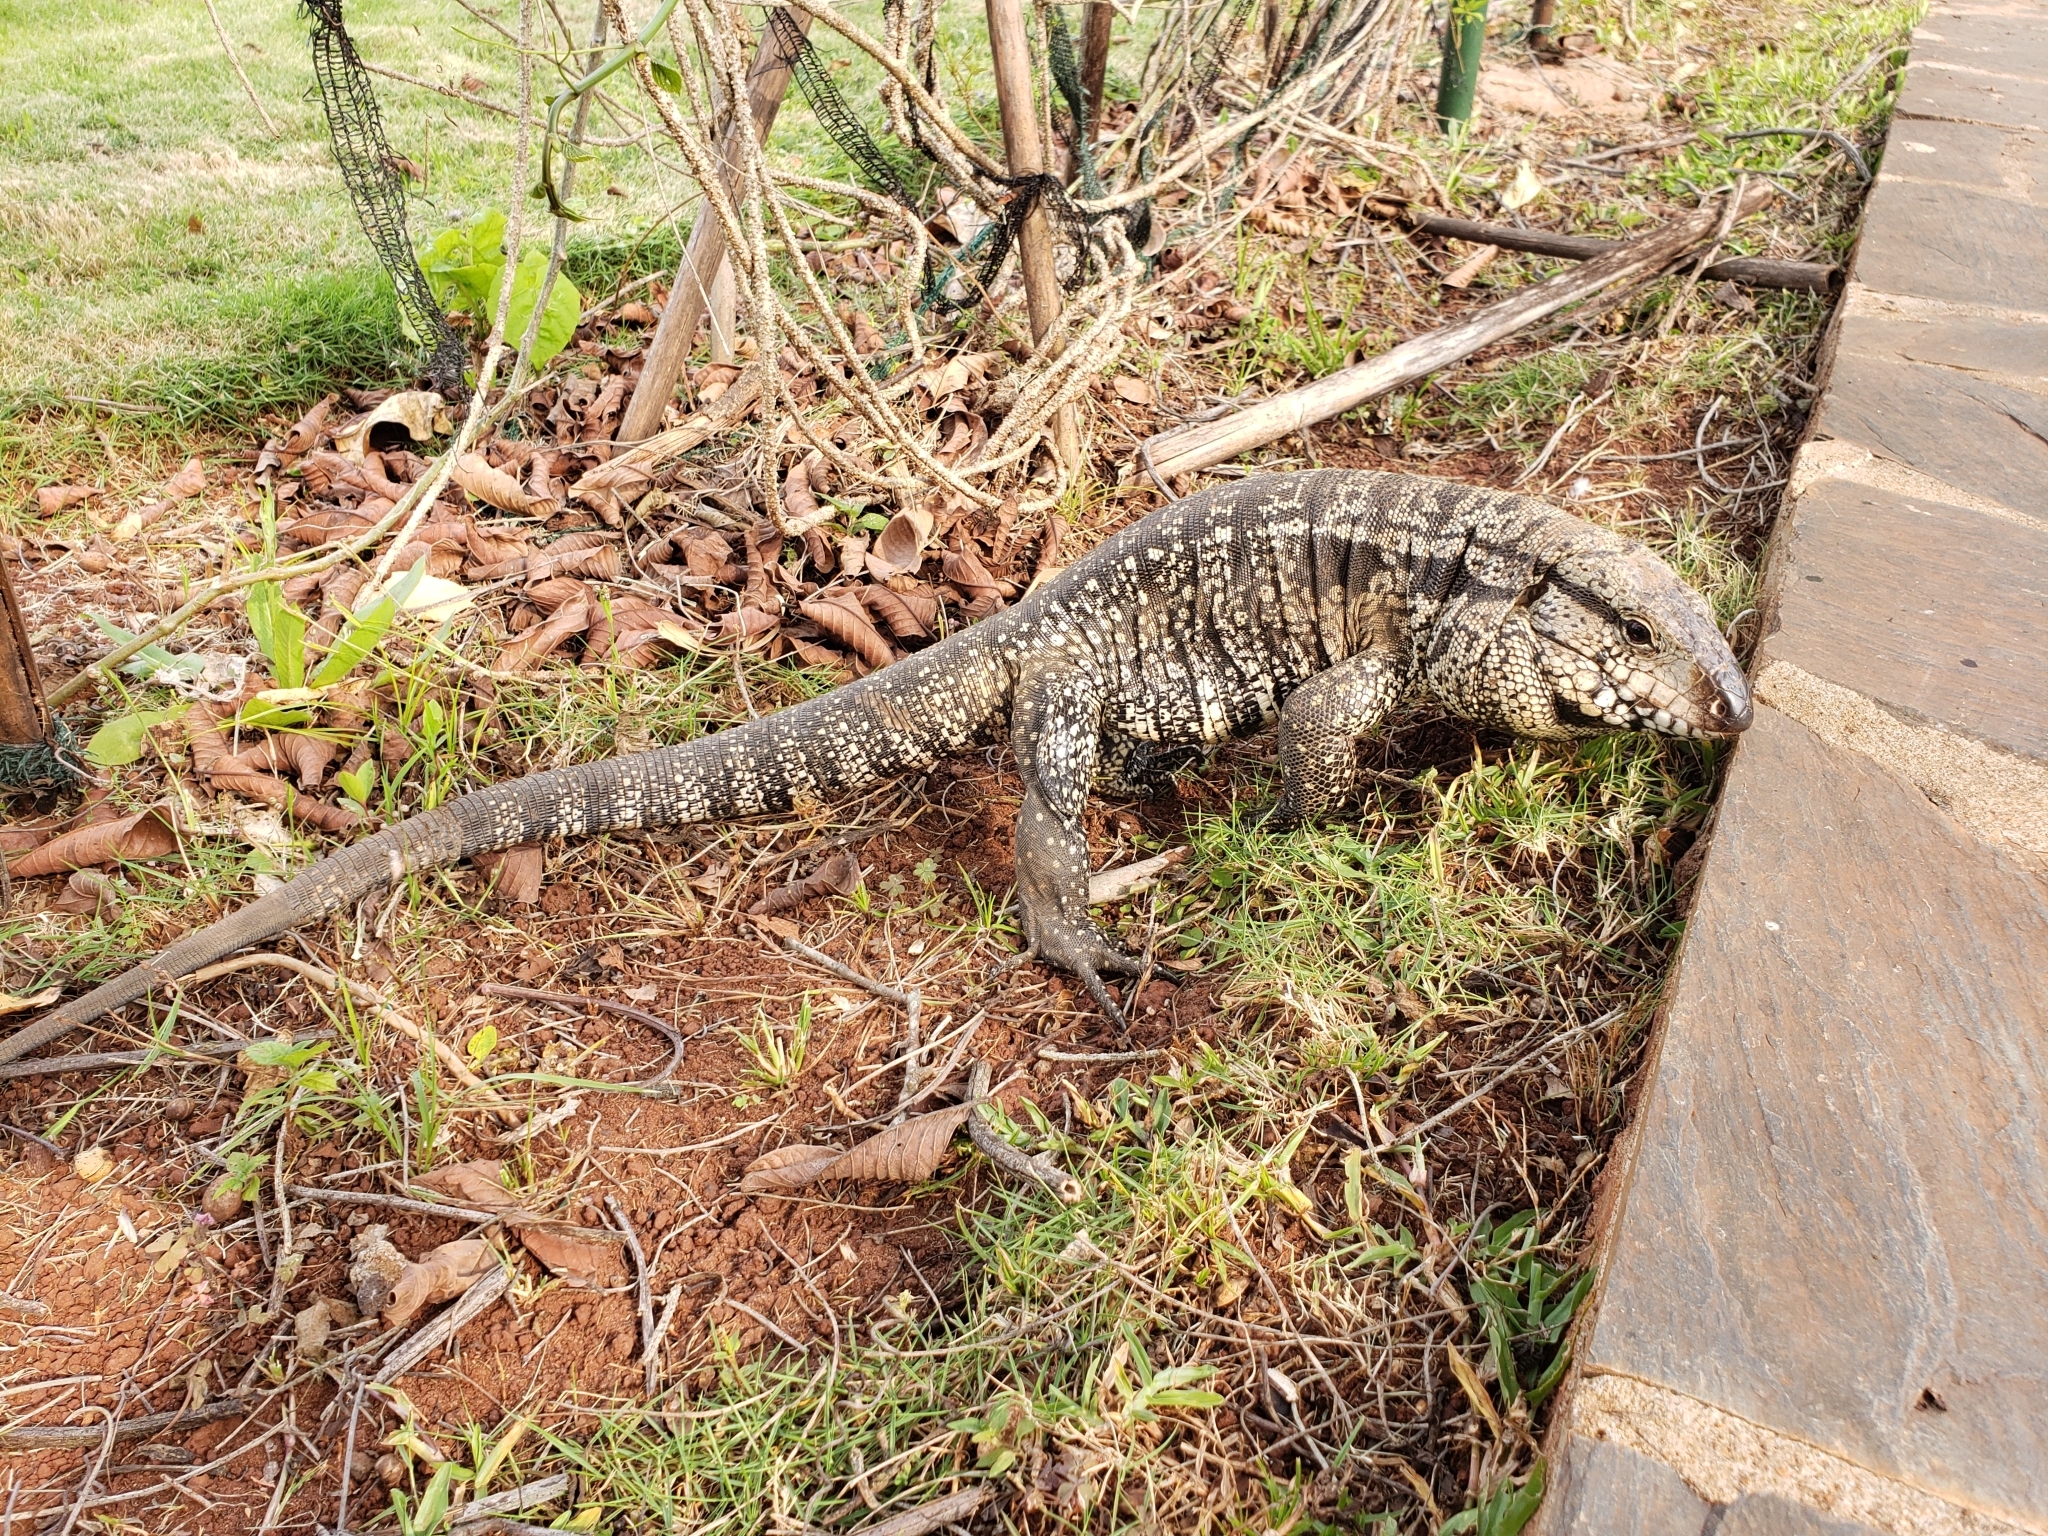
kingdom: Animalia
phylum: Chordata
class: Squamata
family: Teiidae
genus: Salvator
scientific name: Salvator merianae
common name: Argentine black and white tegu
